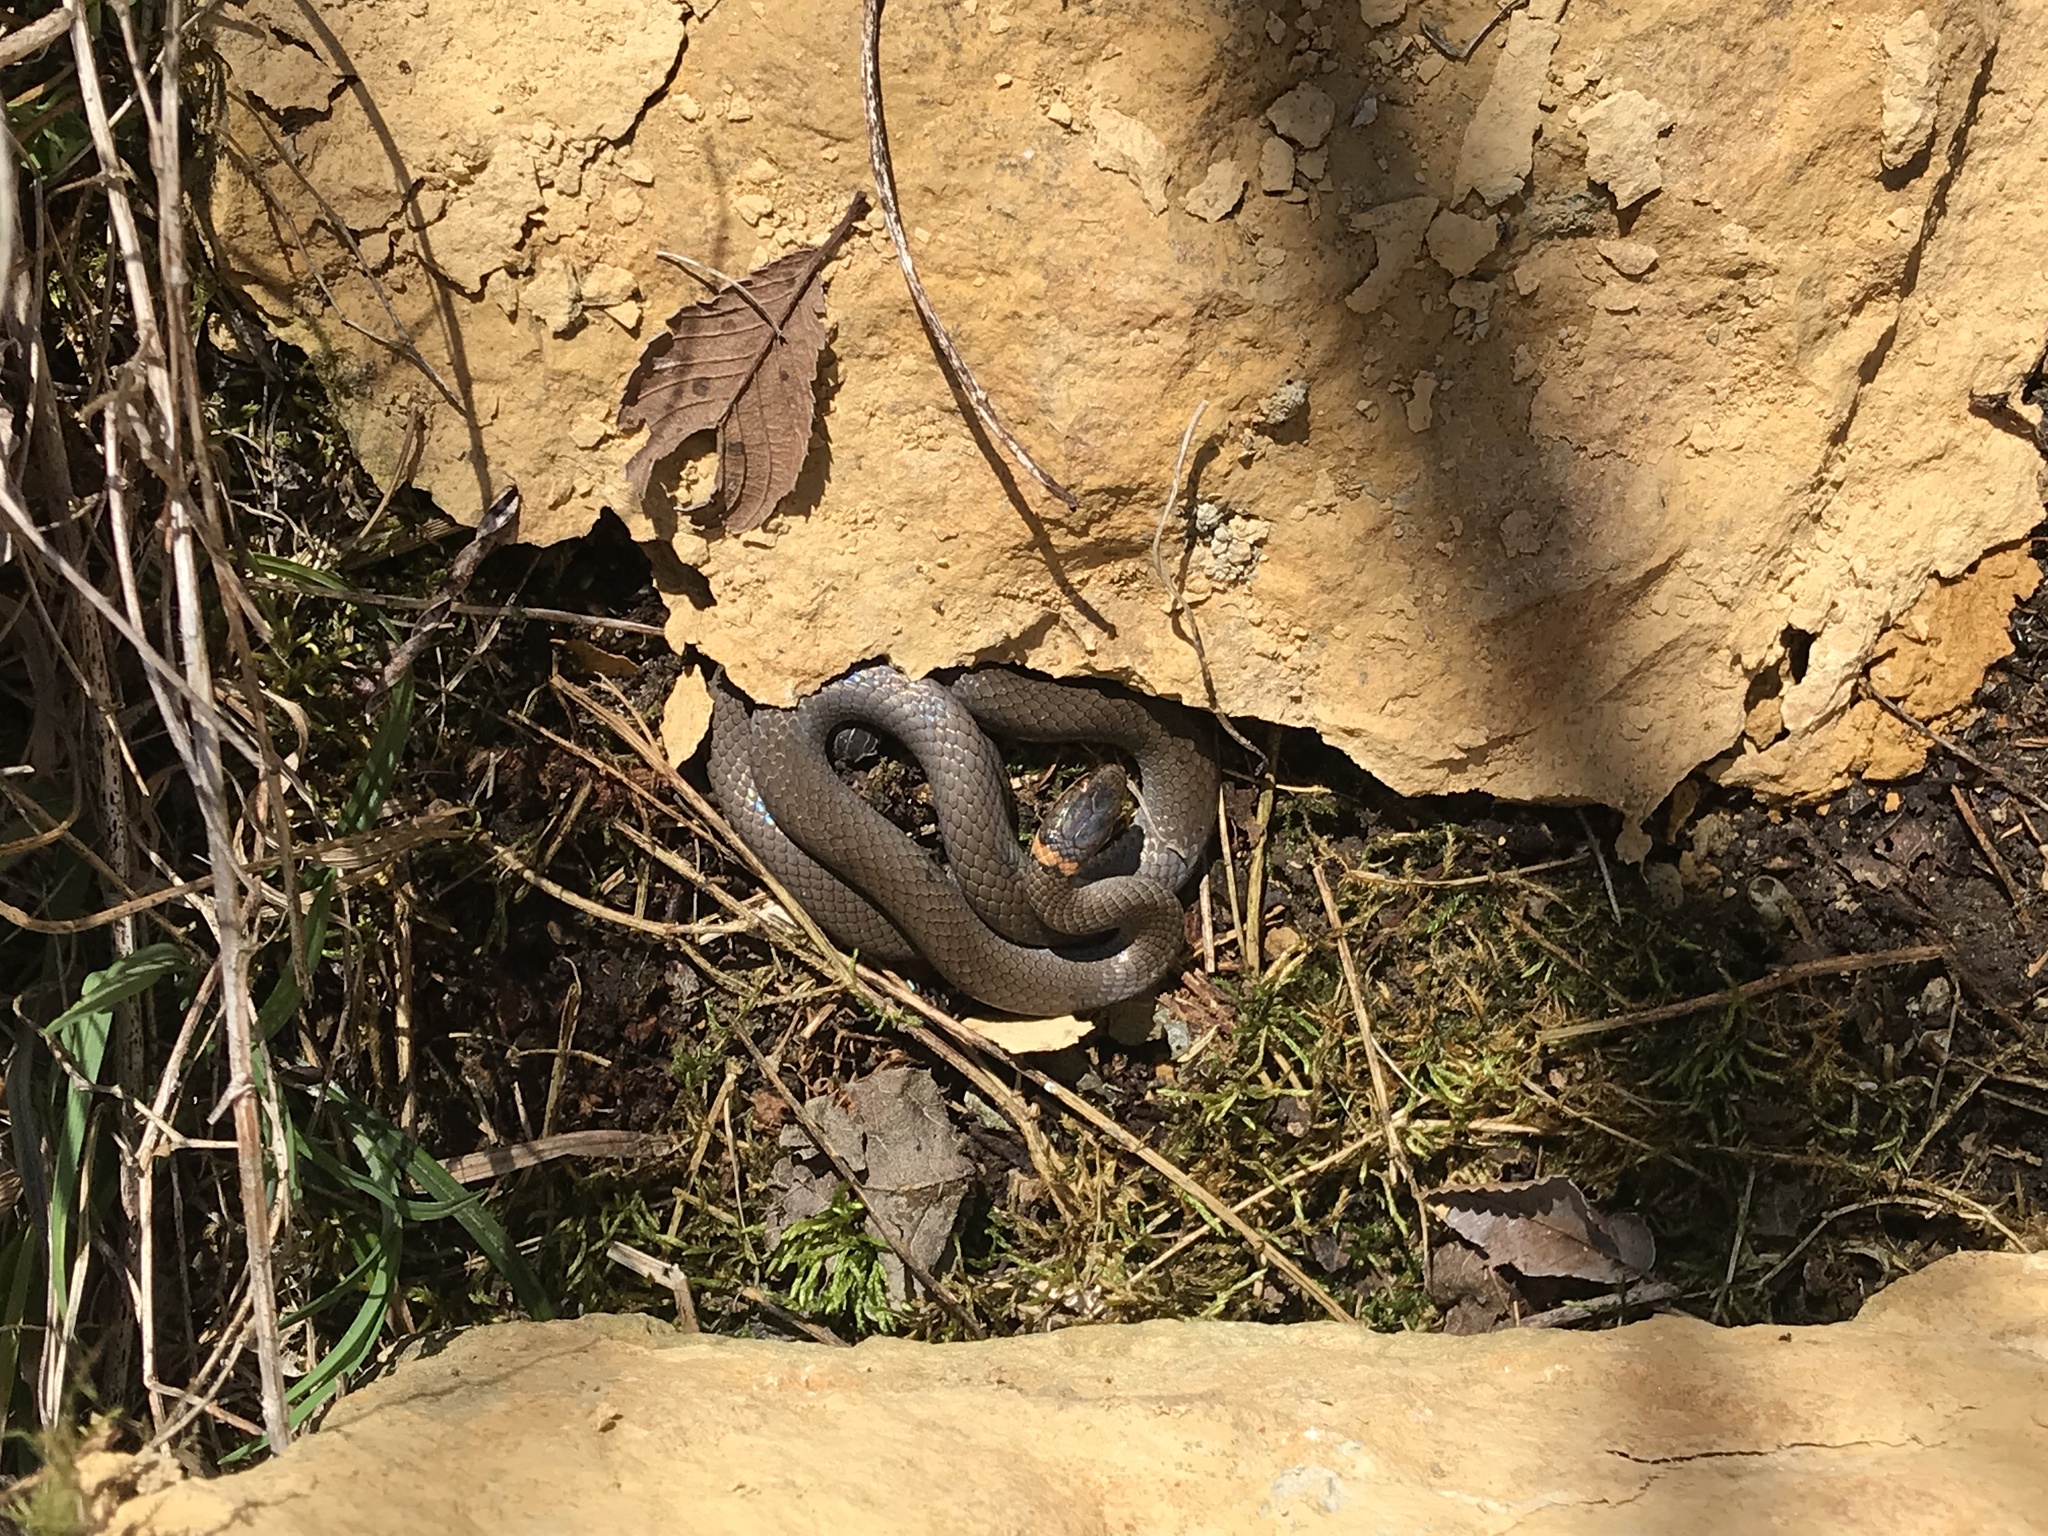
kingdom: Animalia
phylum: Chordata
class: Squamata
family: Colubridae
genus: Diadophis
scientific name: Diadophis punctatus
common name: Ringneck snake
